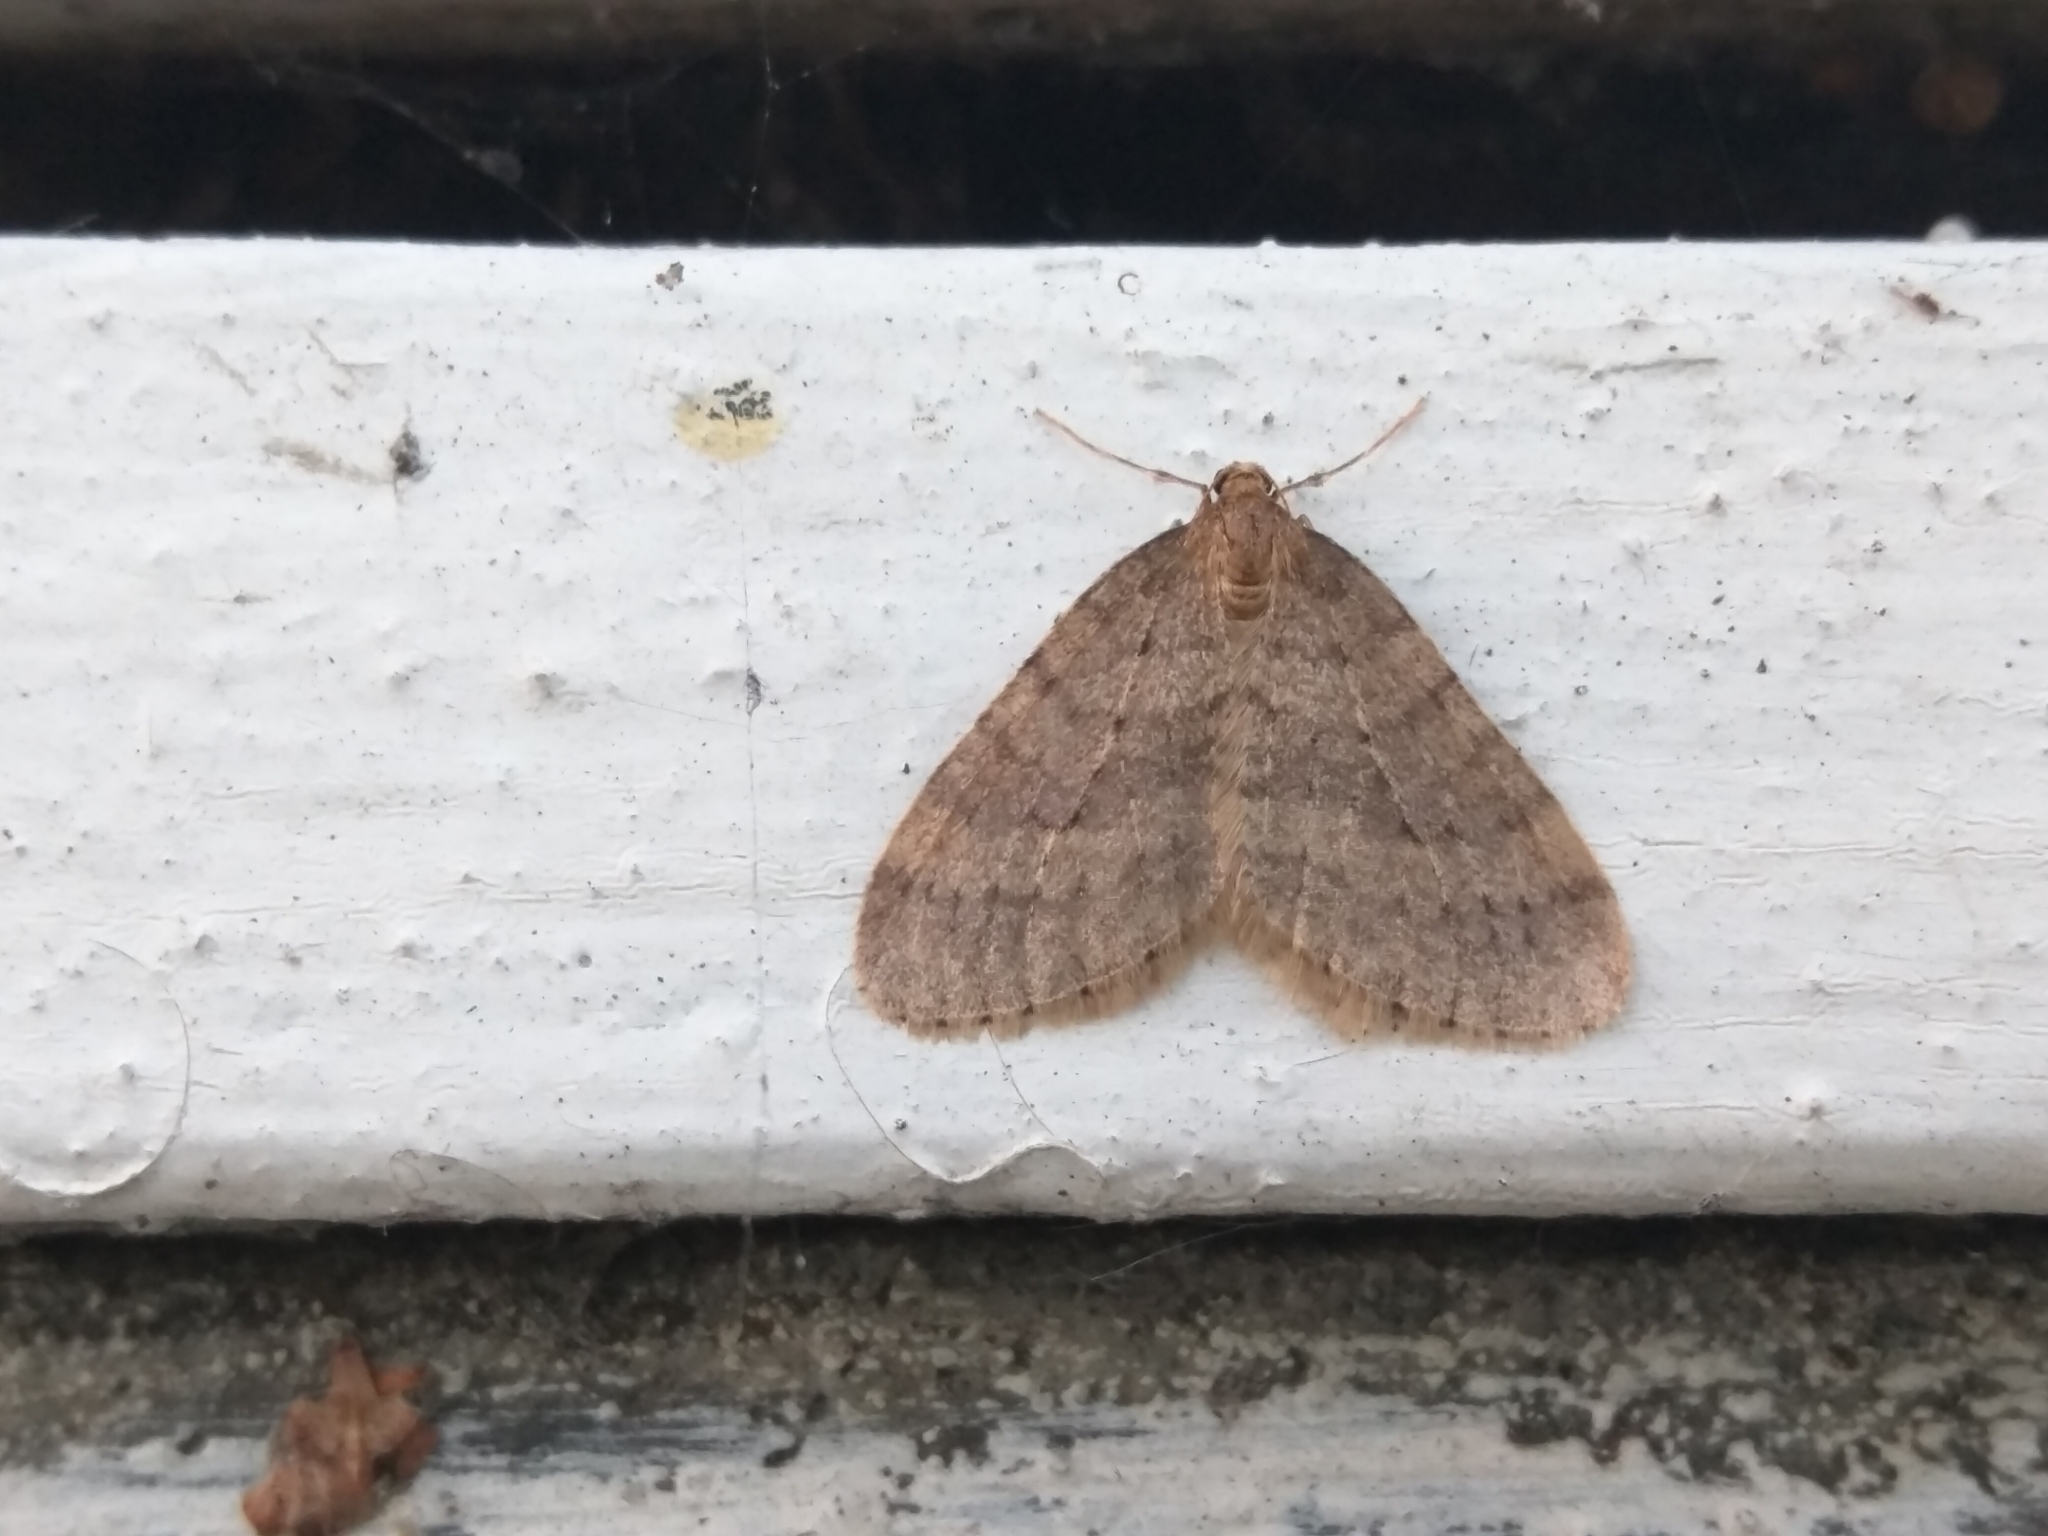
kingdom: Animalia
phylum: Arthropoda
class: Insecta
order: Lepidoptera
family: Geometridae
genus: Operophtera
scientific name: Operophtera brumata
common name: Winter moth
